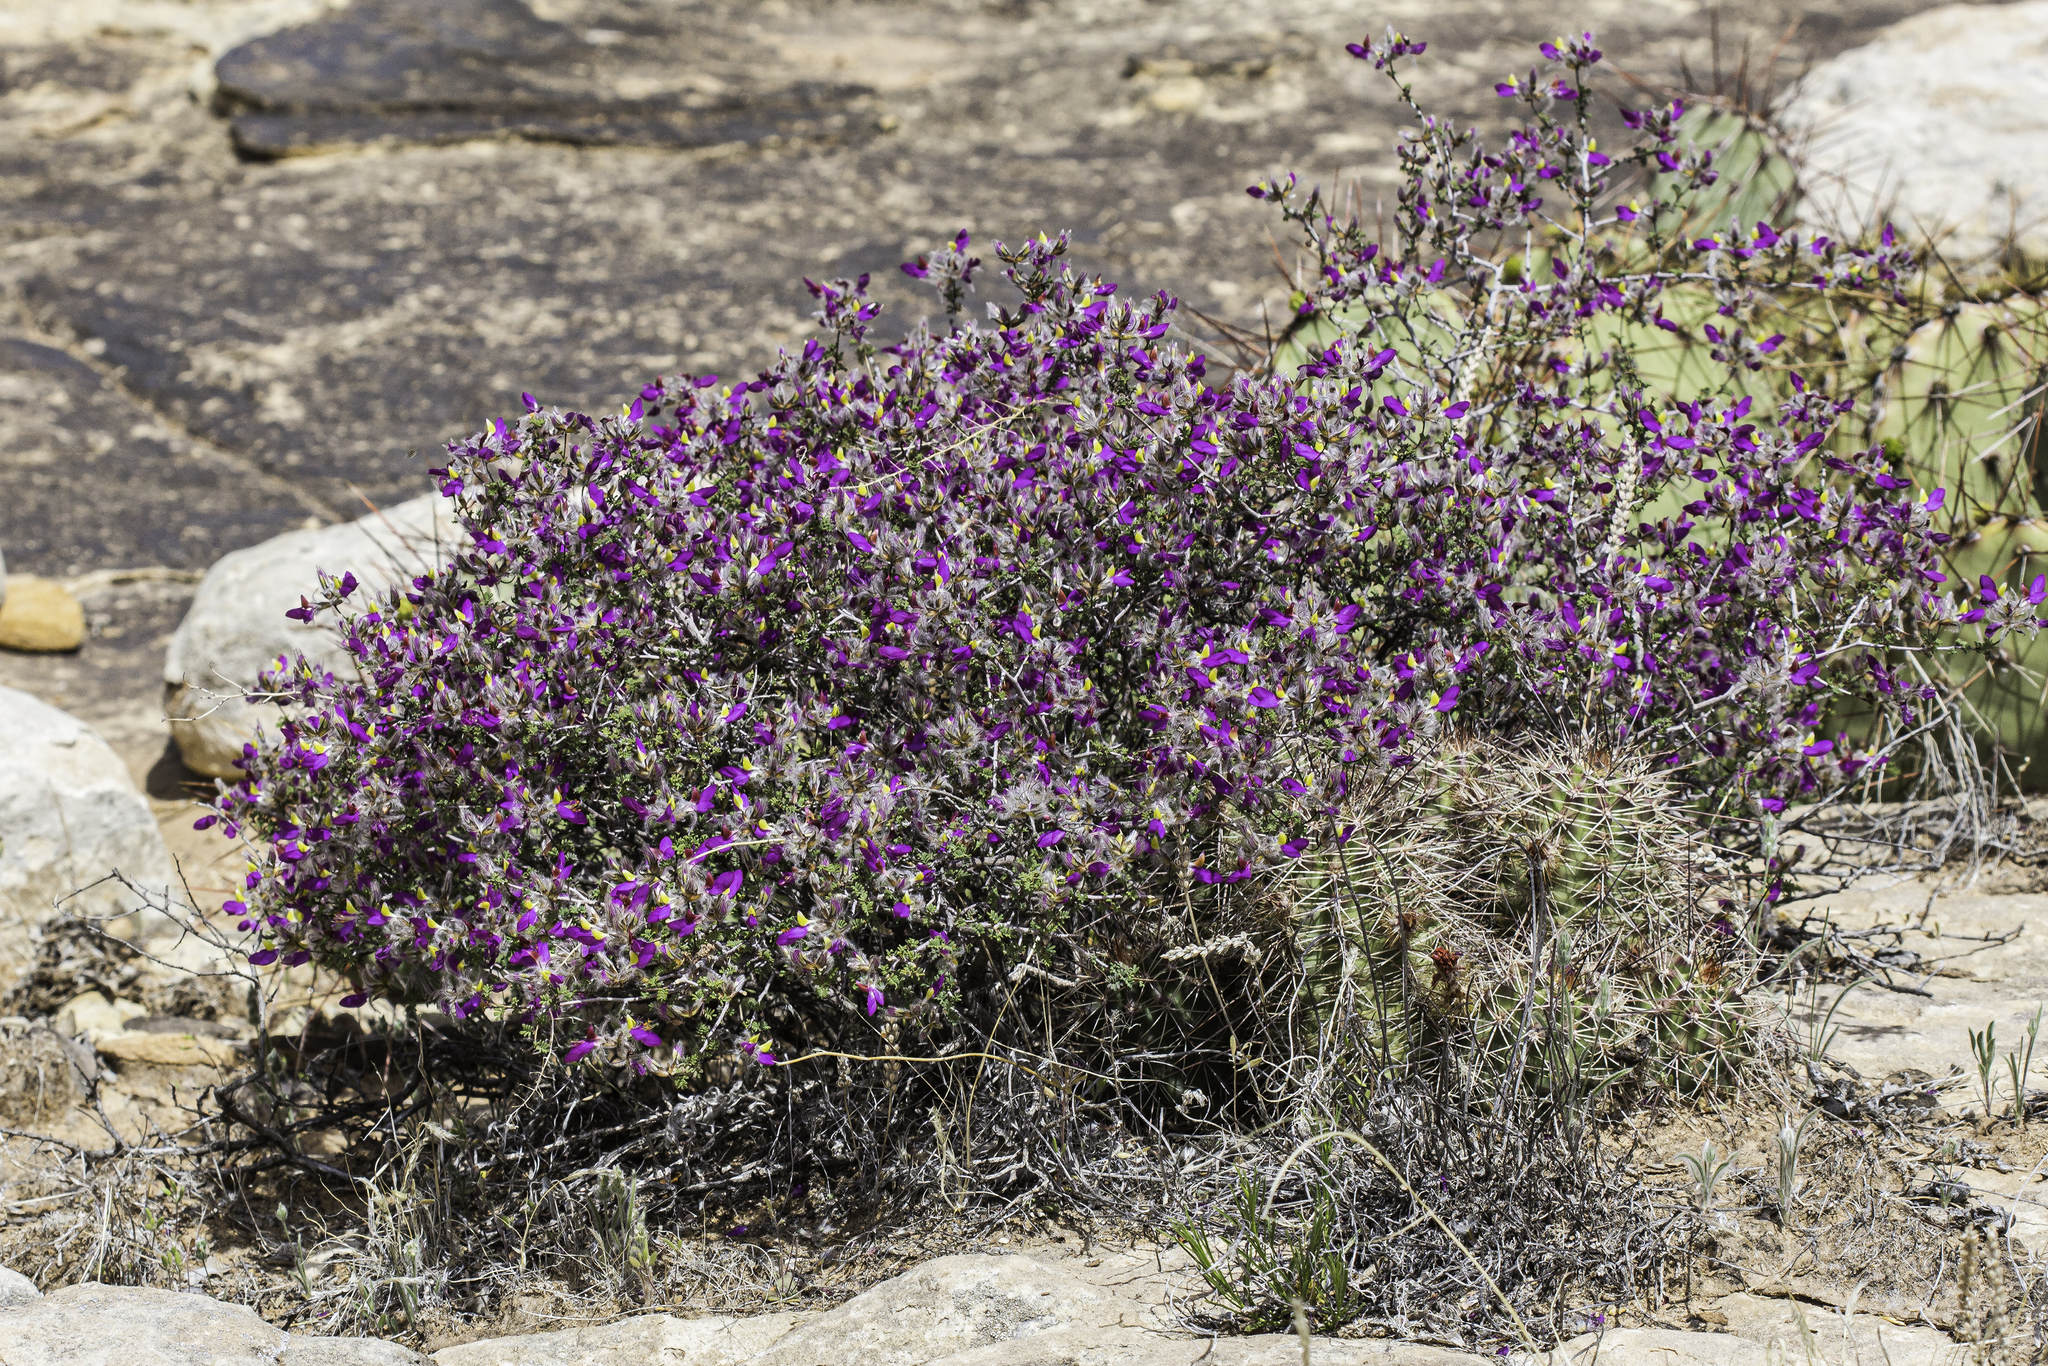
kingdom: Plantae
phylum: Tracheophyta
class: Magnoliopsida
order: Fabales
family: Fabaceae
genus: Dalea
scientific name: Dalea formosa
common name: Feather-plume dalea
